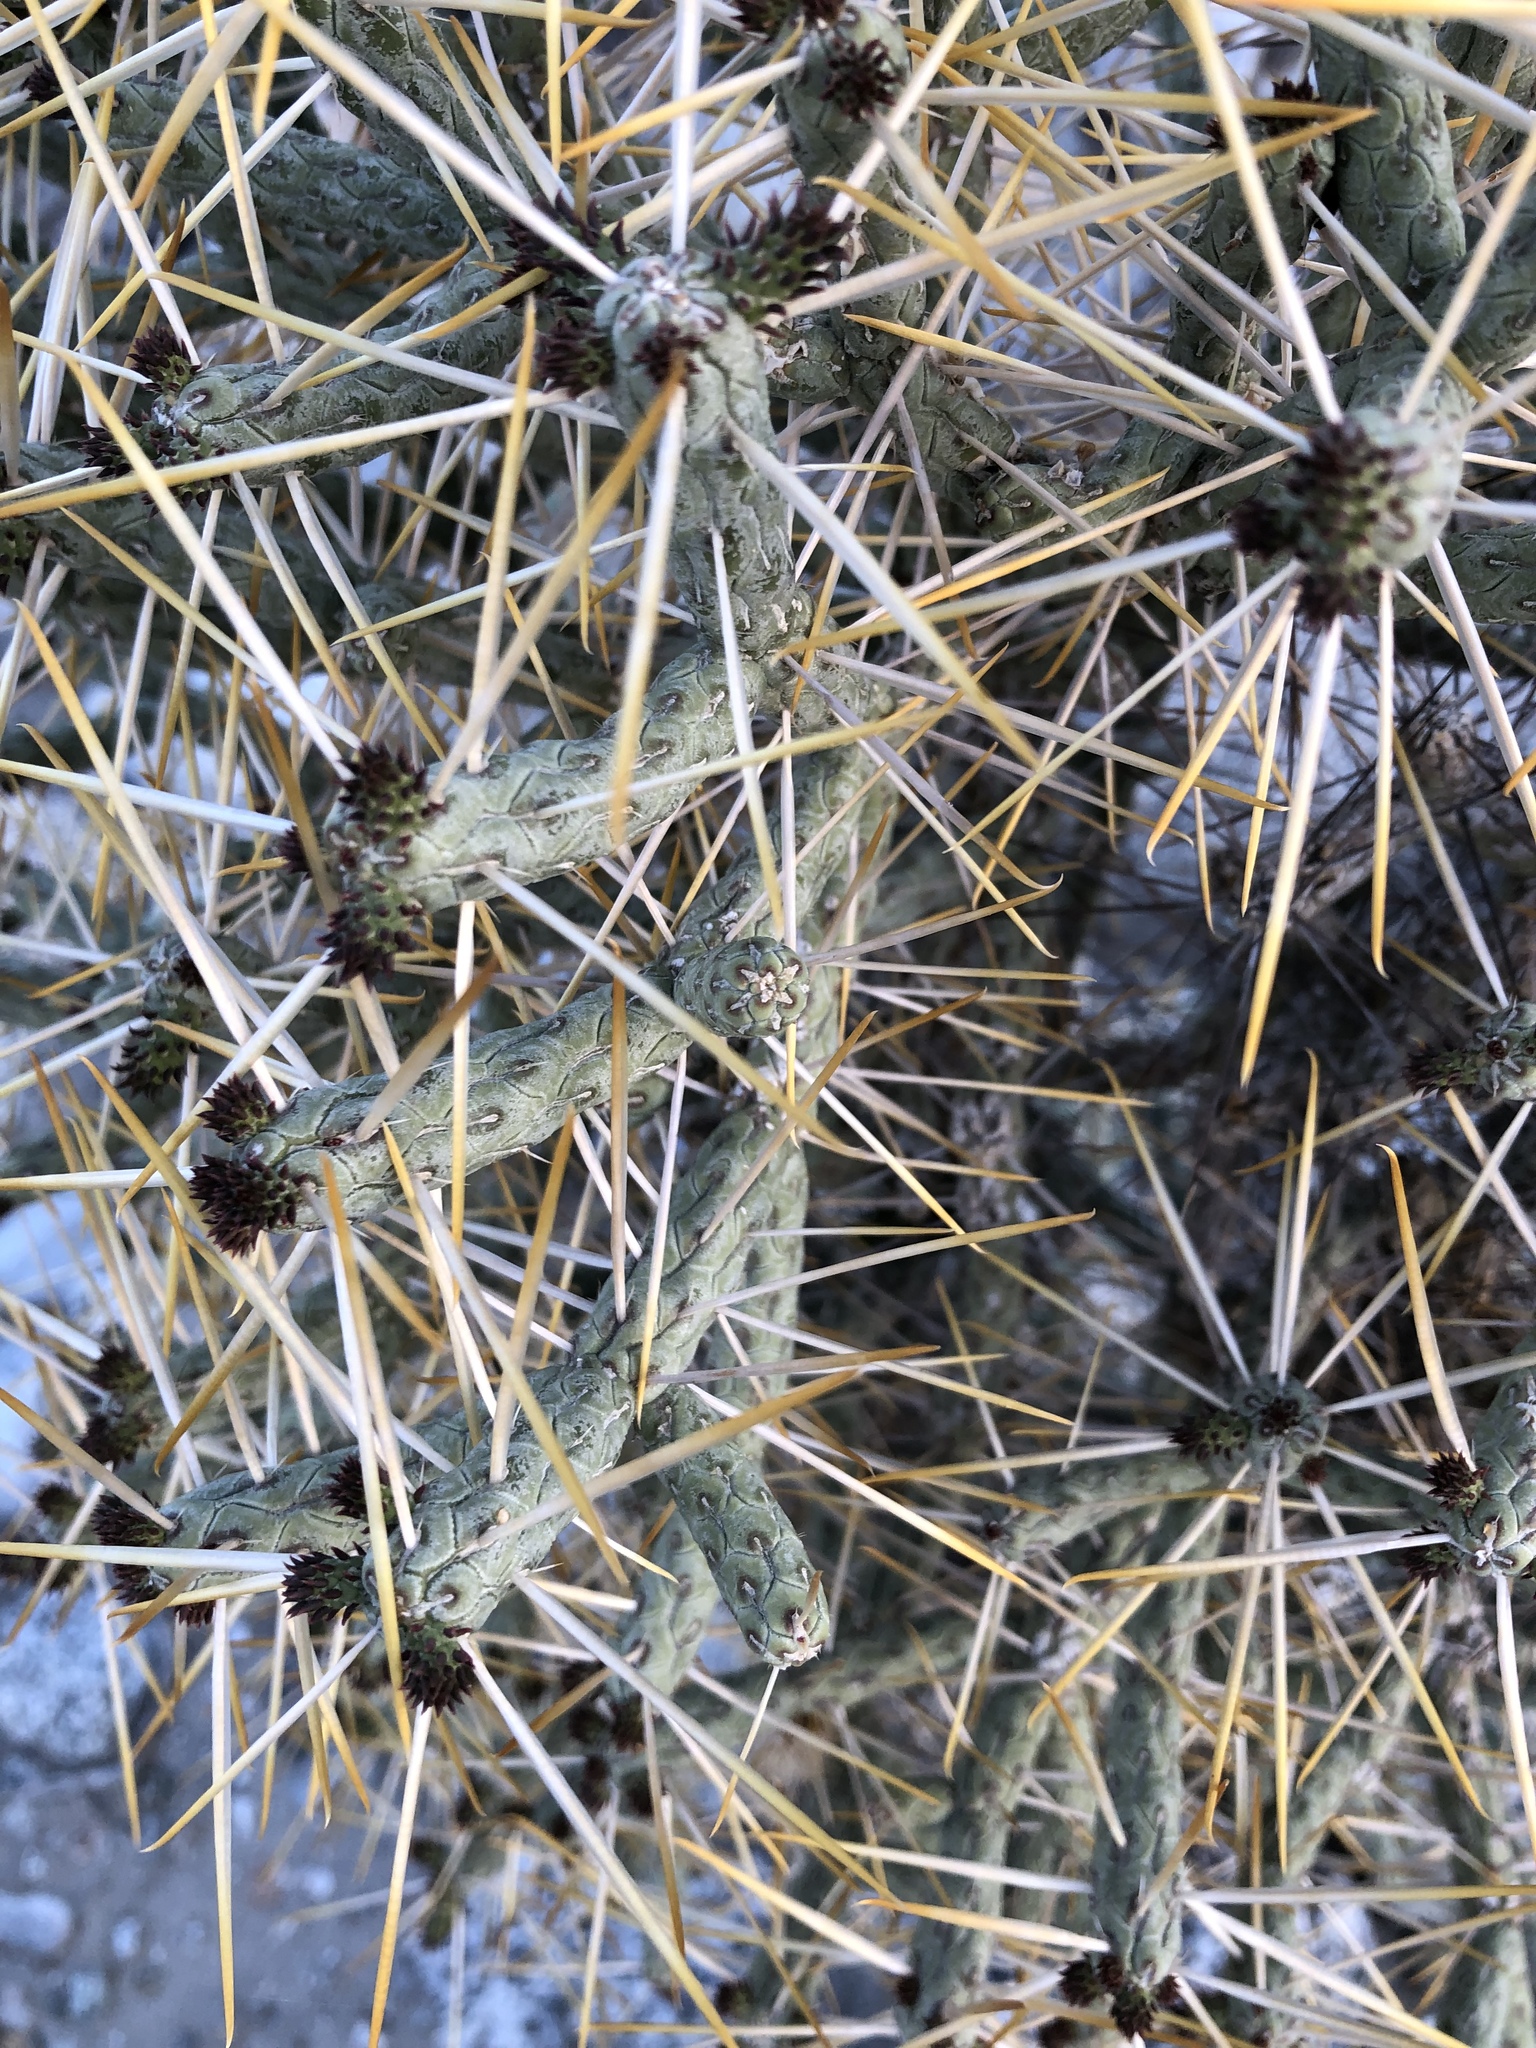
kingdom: Plantae
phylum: Tracheophyta
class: Magnoliopsida
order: Caryophyllales
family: Cactaceae
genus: Cylindropuntia
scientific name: Cylindropuntia ramosissima
